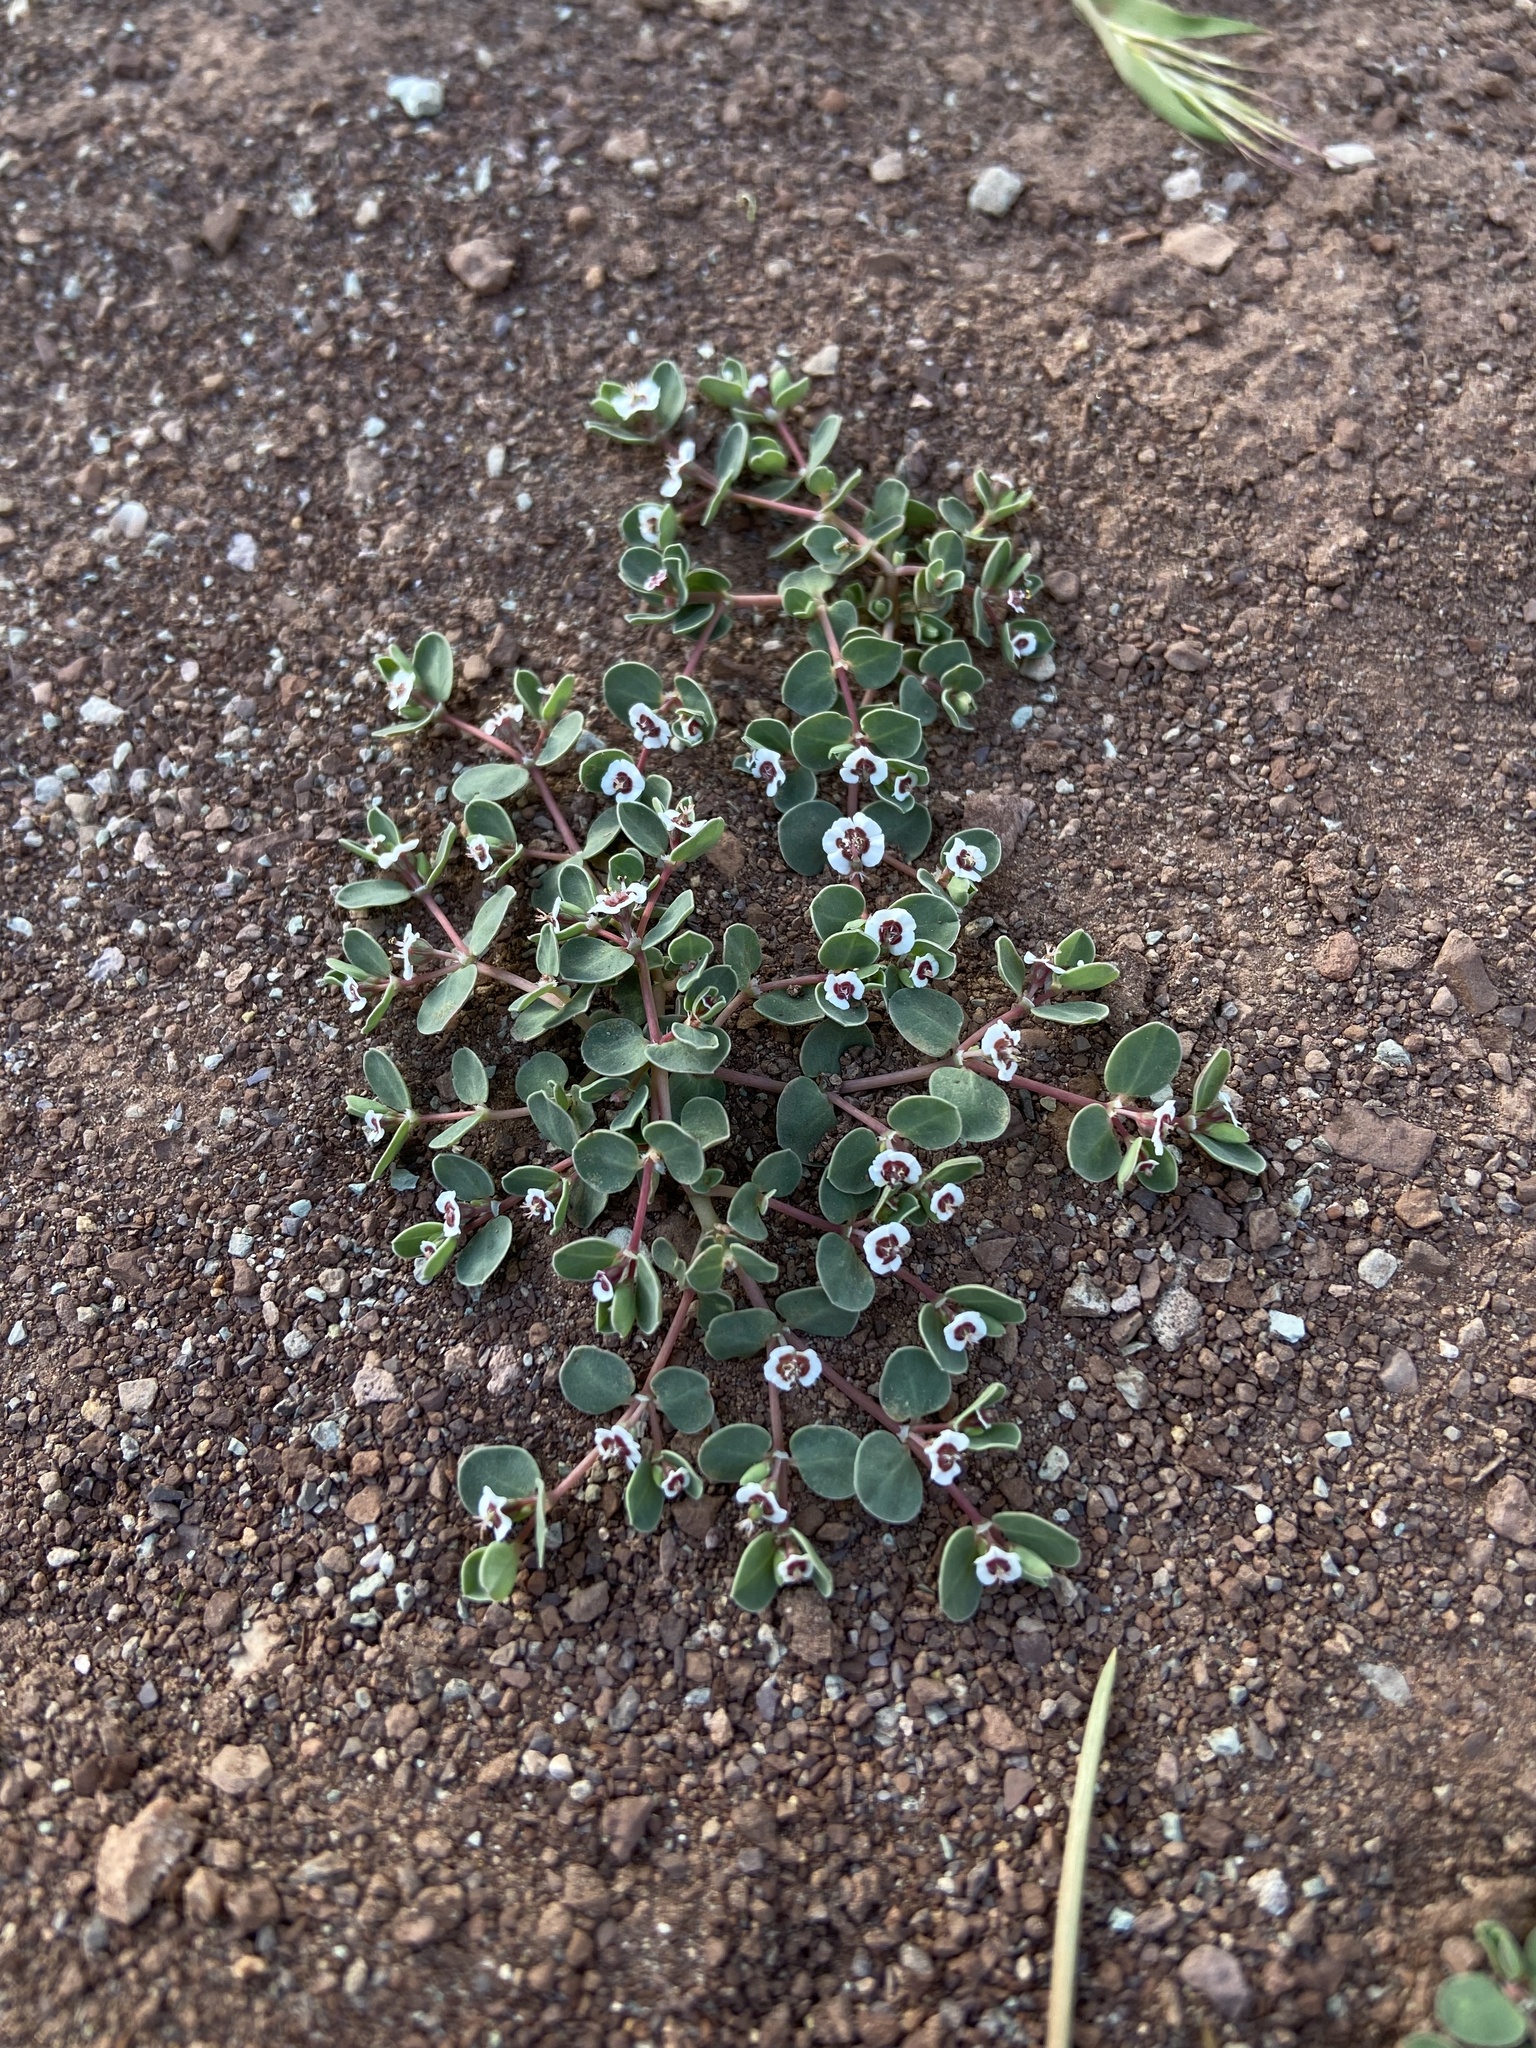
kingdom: Plantae
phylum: Tracheophyta
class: Magnoliopsida
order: Malpighiales
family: Euphorbiaceae
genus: Euphorbia
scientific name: Euphorbia albomarginata
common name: Whitemargin sandmat
